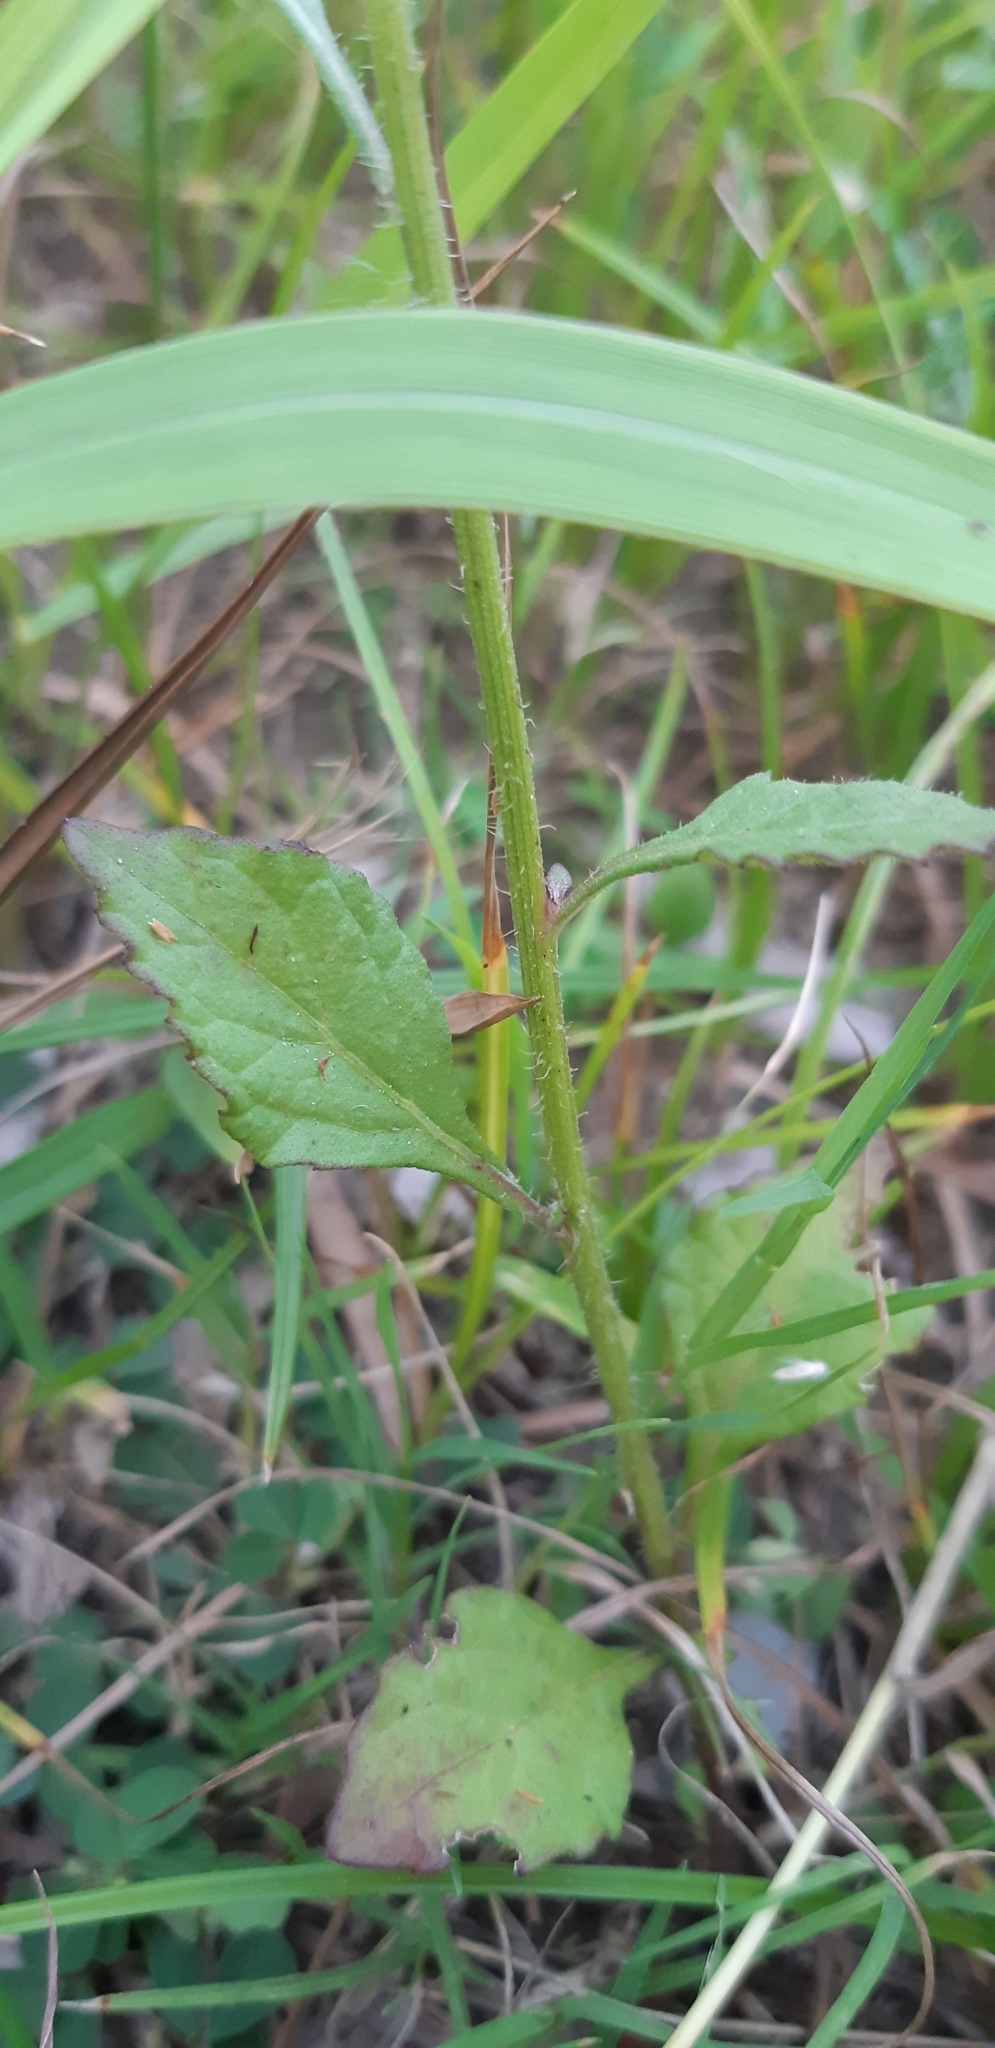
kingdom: Plantae
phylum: Tracheophyta
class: Magnoliopsida
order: Asterales
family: Asteraceae
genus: Cyanthillium
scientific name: Cyanthillium cinereum
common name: Little ironweed
